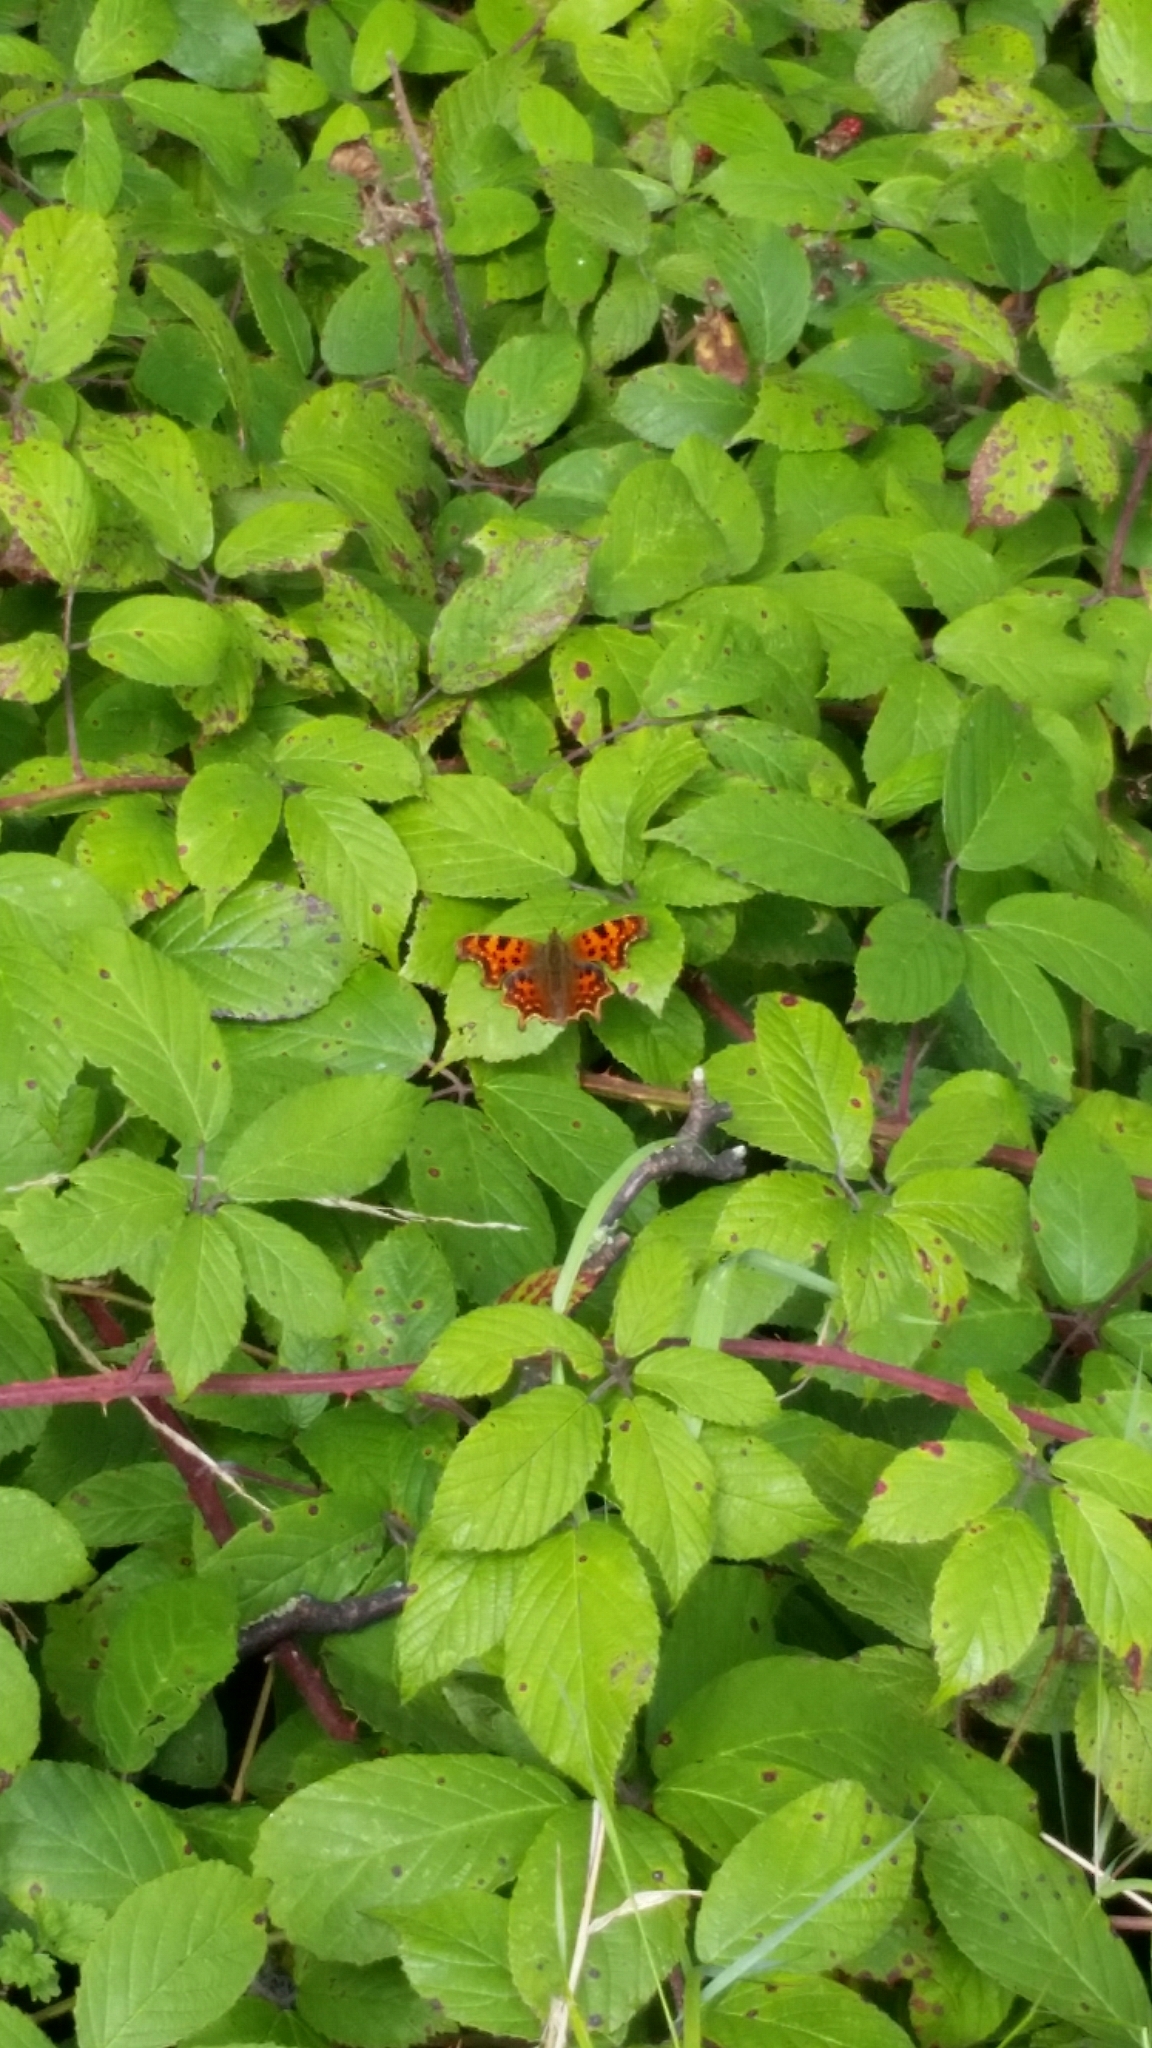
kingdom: Animalia
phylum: Arthropoda
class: Insecta
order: Lepidoptera
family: Nymphalidae
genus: Polygonia
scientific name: Polygonia c-album
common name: Comma
